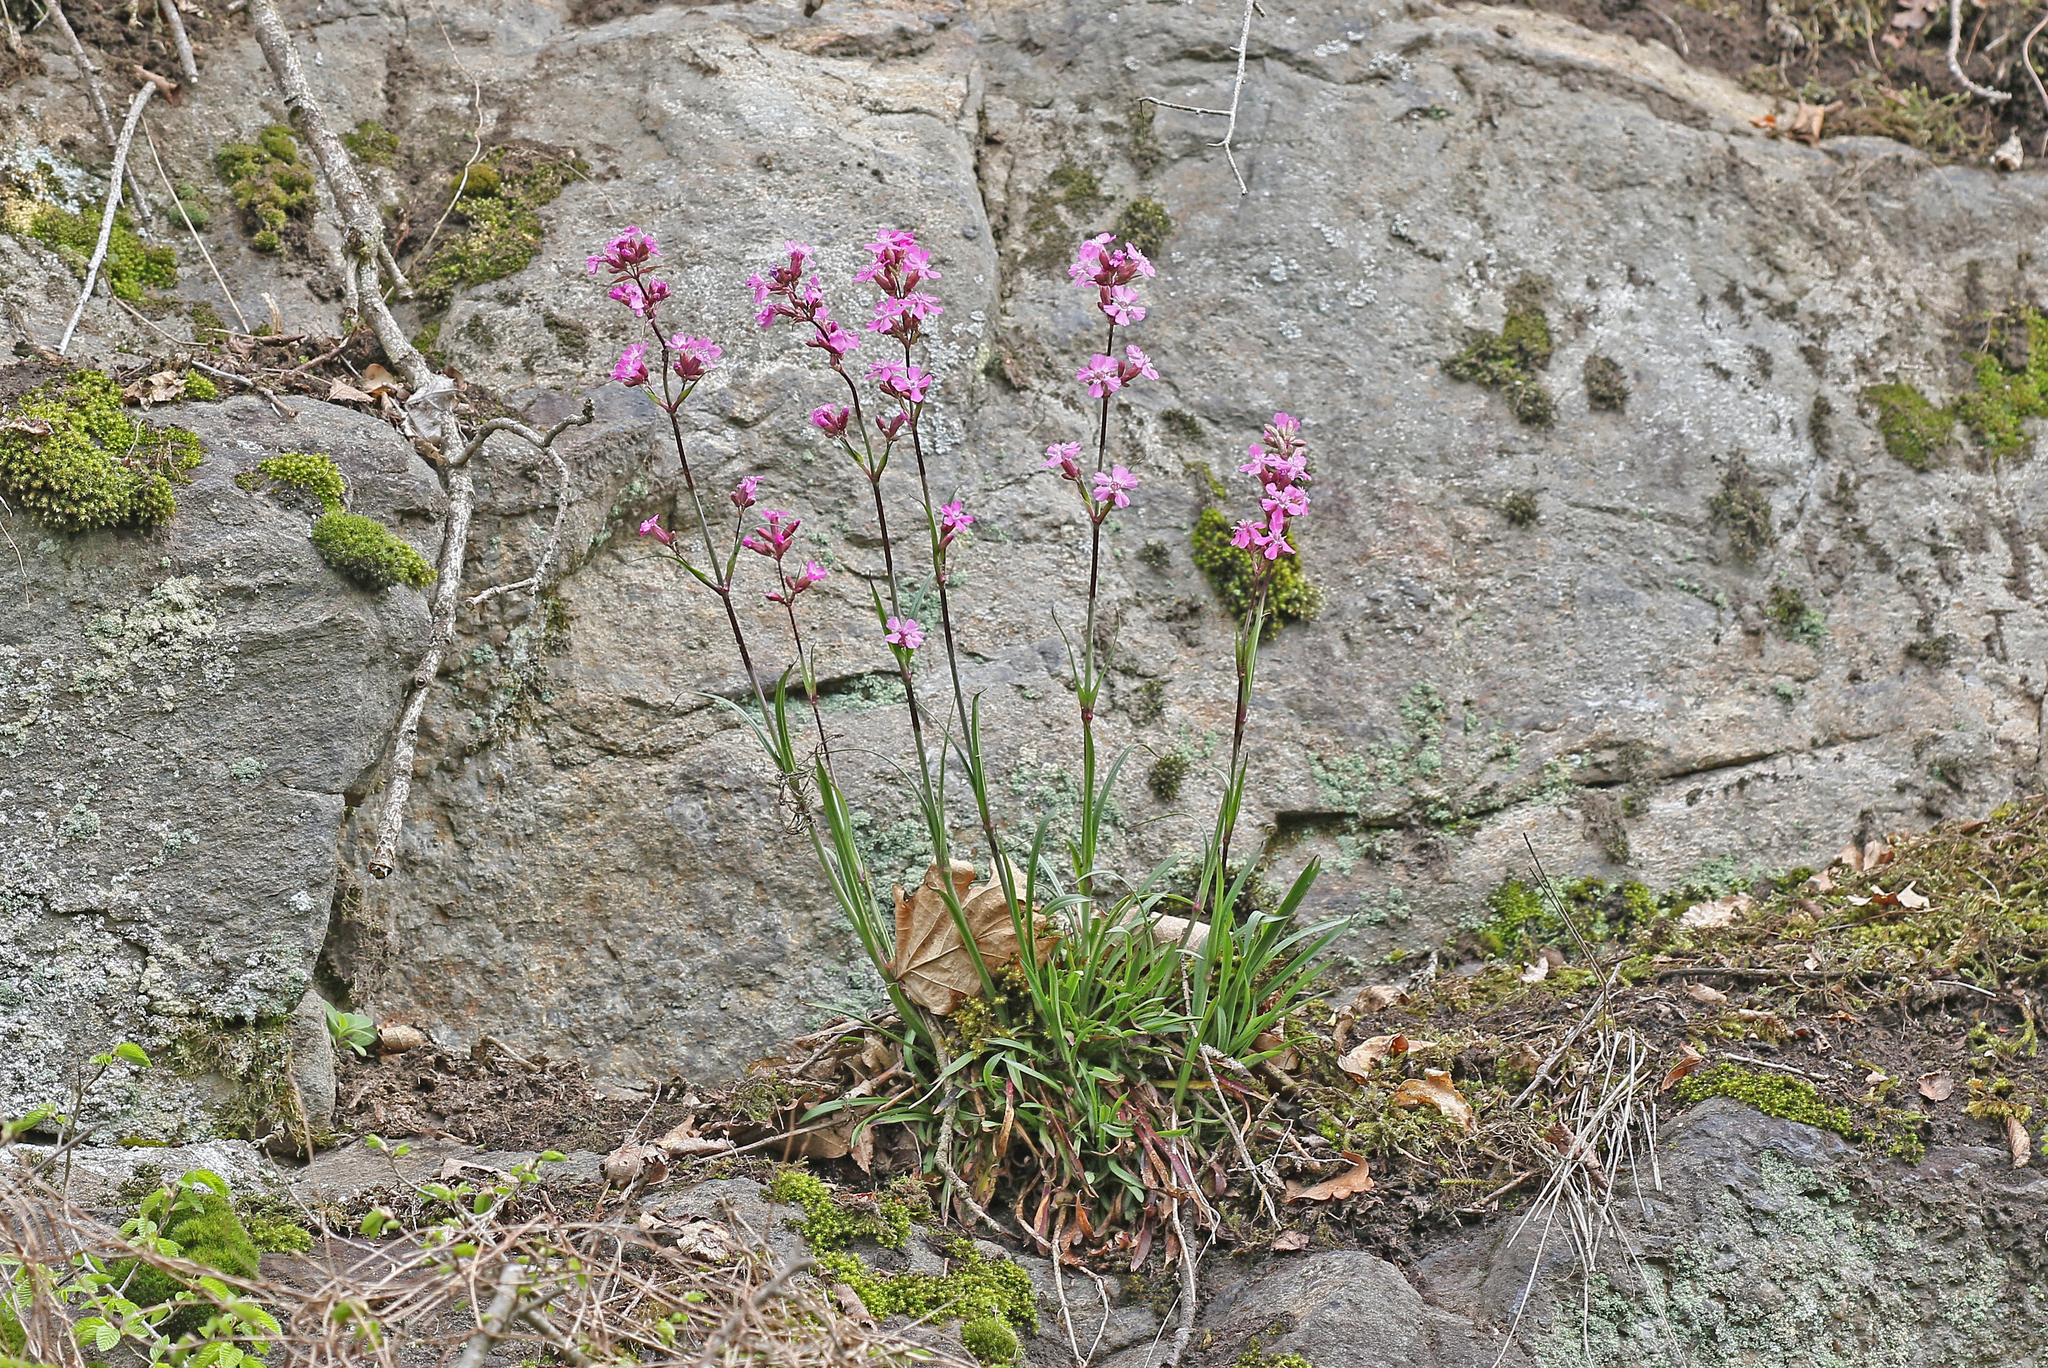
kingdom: Plantae
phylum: Tracheophyta
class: Magnoliopsida
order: Caryophyllales
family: Caryophyllaceae
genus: Viscaria
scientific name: Viscaria vulgaris
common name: Clammy campion
